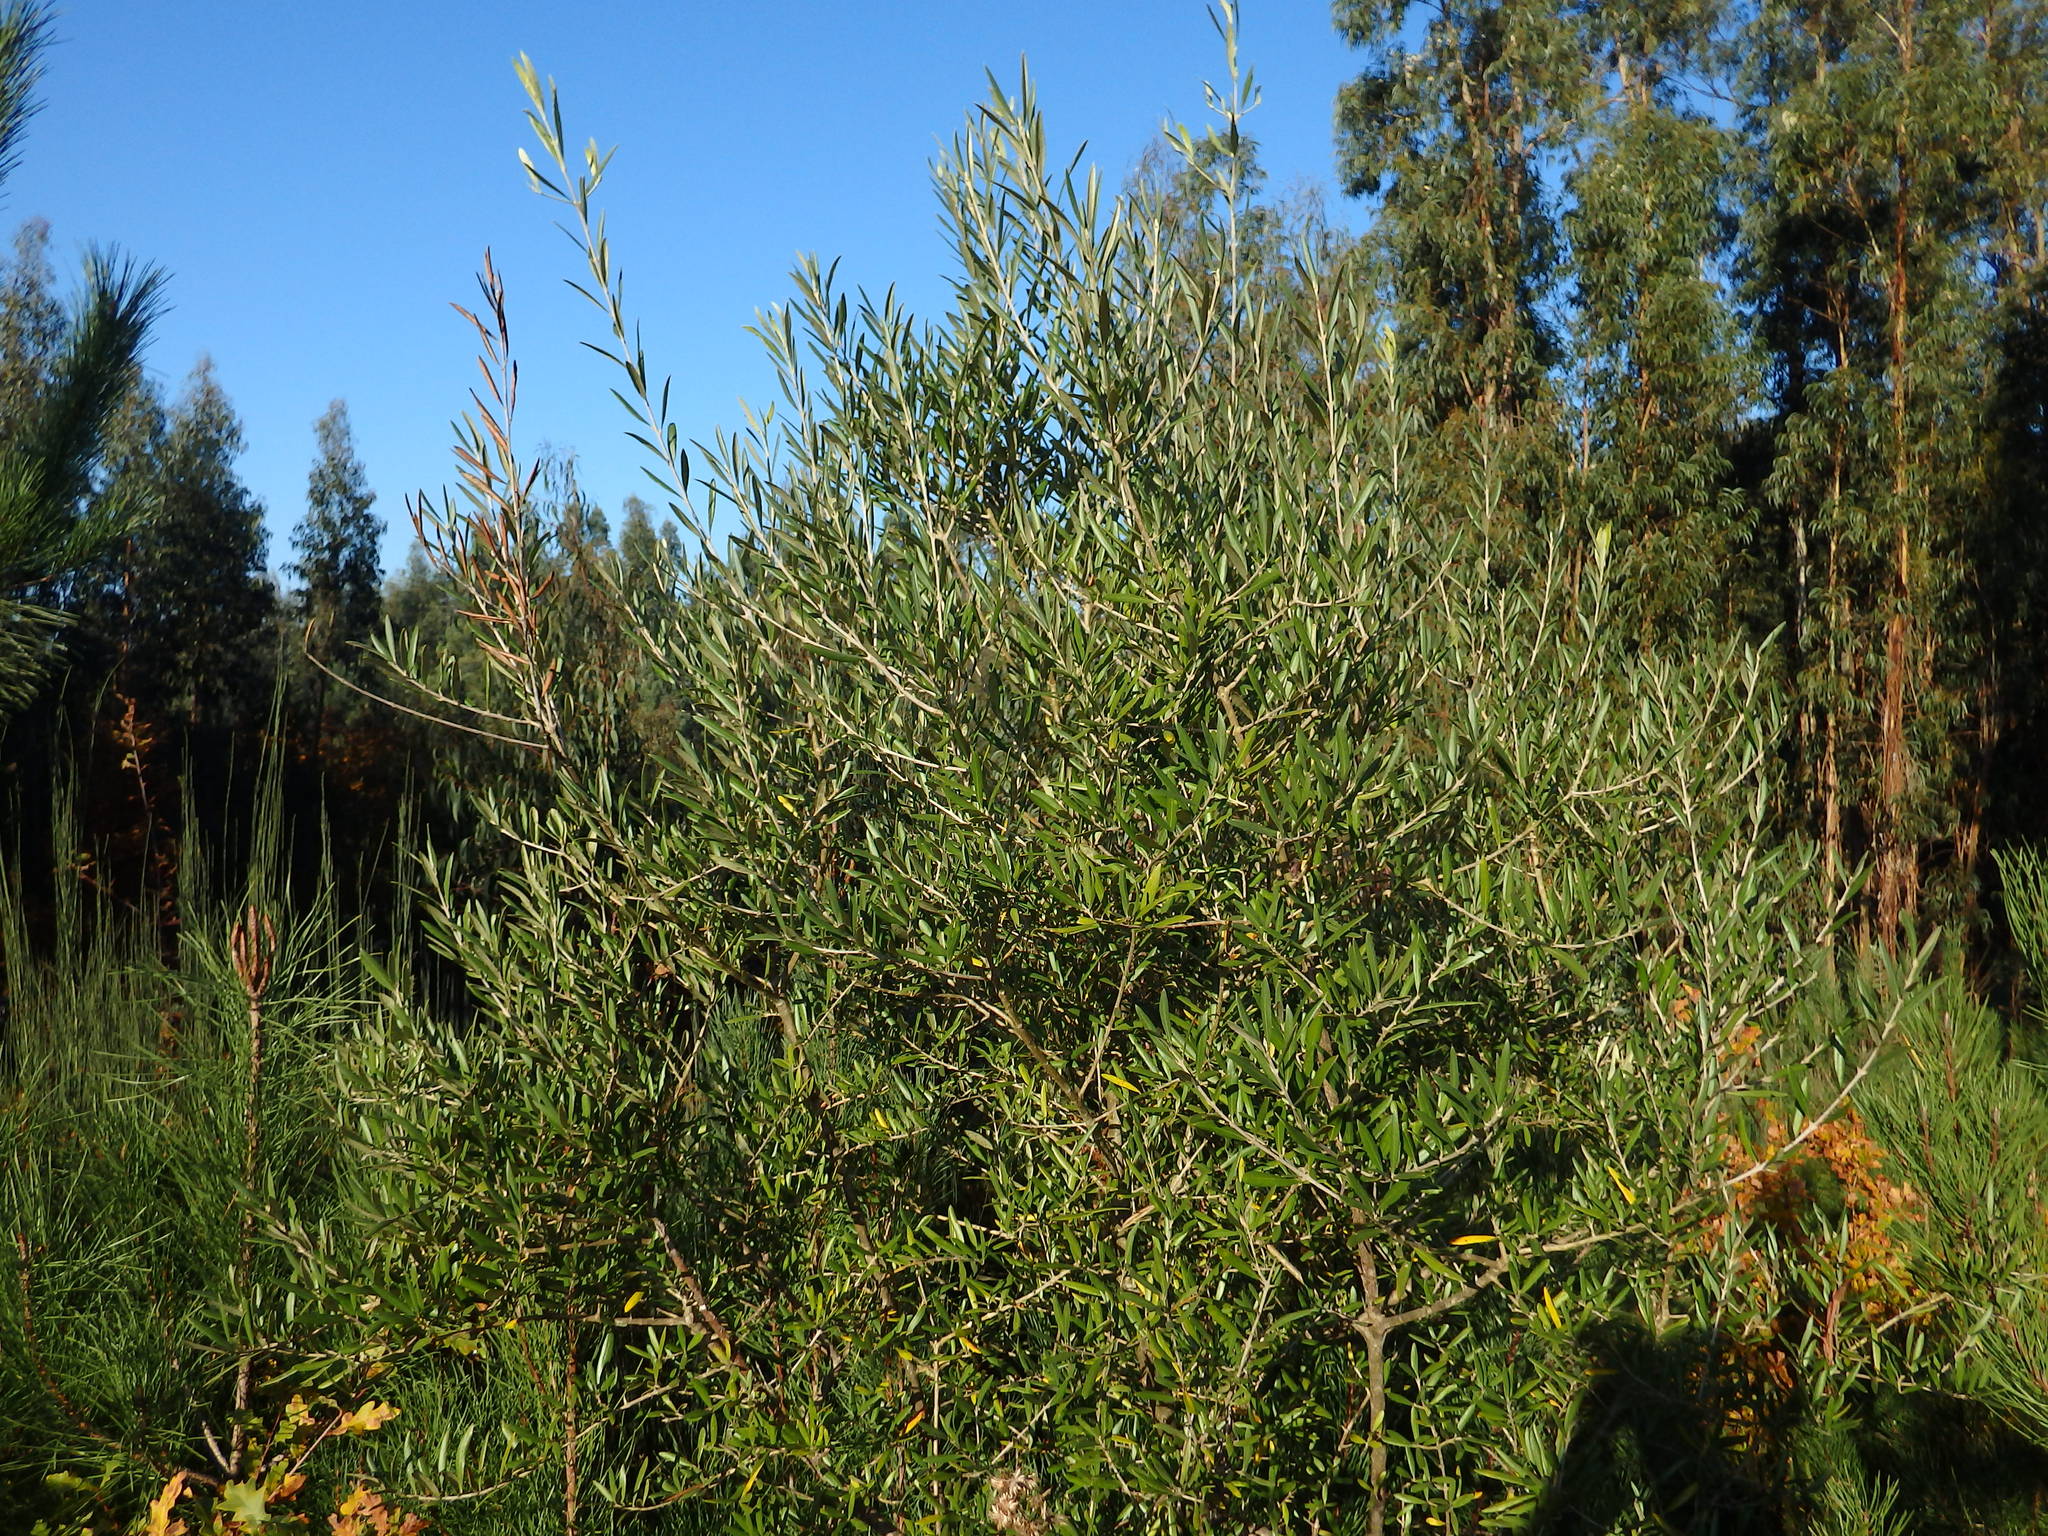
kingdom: Plantae
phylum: Tracheophyta
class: Magnoliopsida
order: Lamiales
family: Oleaceae
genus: Olea
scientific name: Olea europaea
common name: Olive
